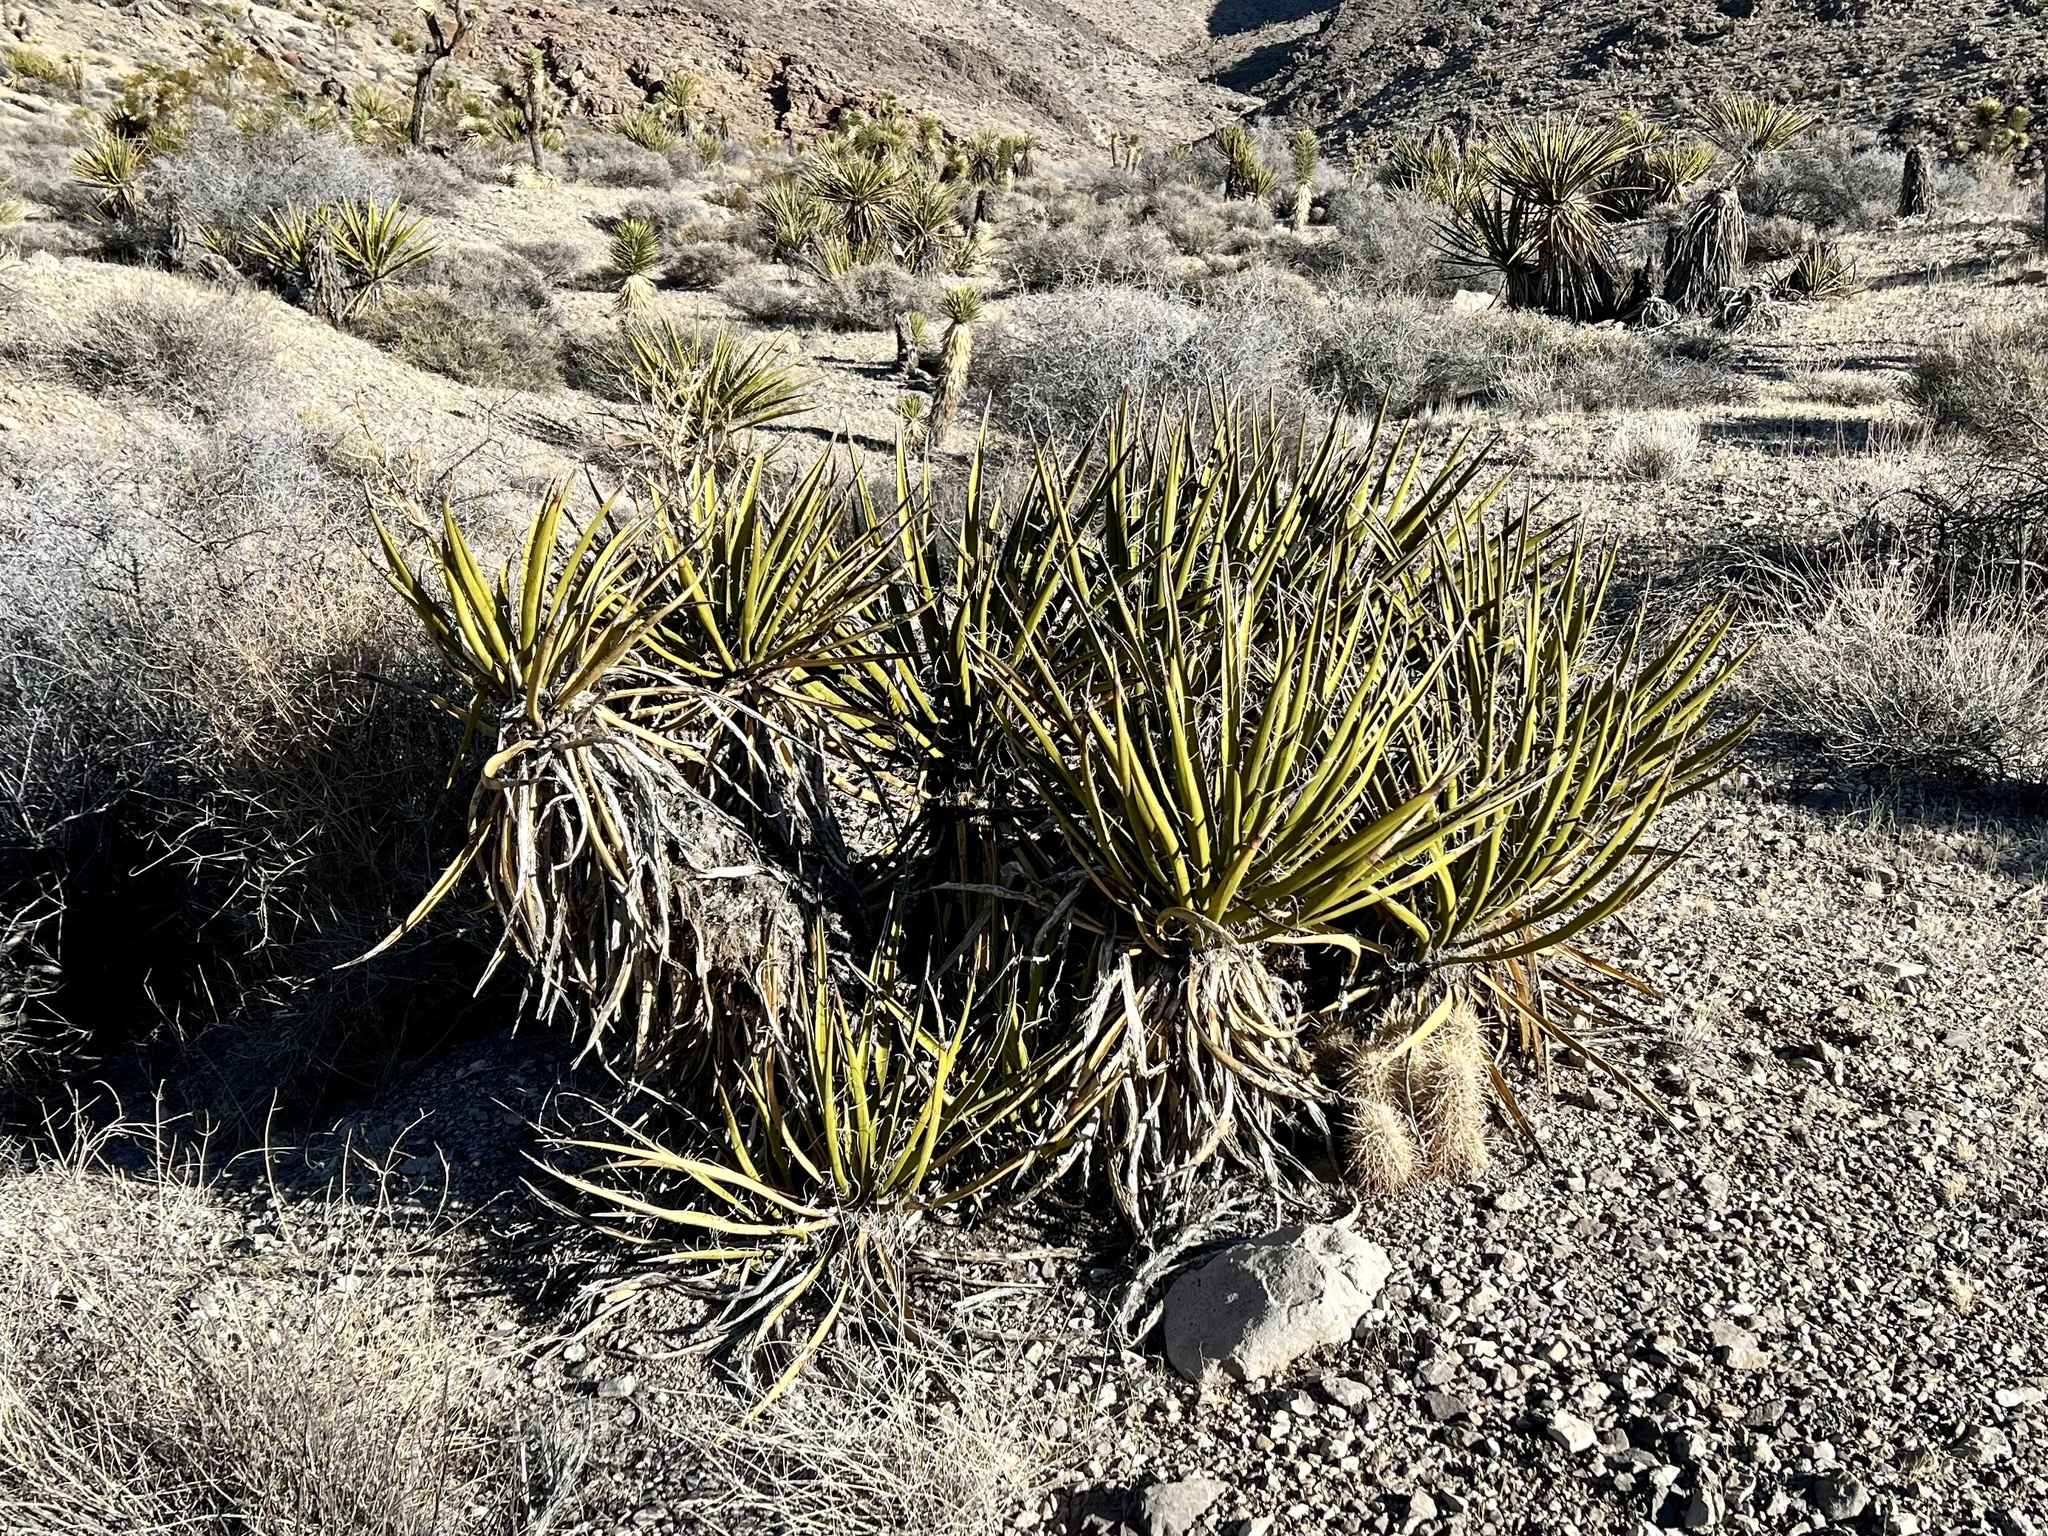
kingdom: Plantae
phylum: Tracheophyta
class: Liliopsida
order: Asparagales
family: Asparagaceae
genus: Yucca
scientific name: Yucca schidigera
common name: Mojave yucca
